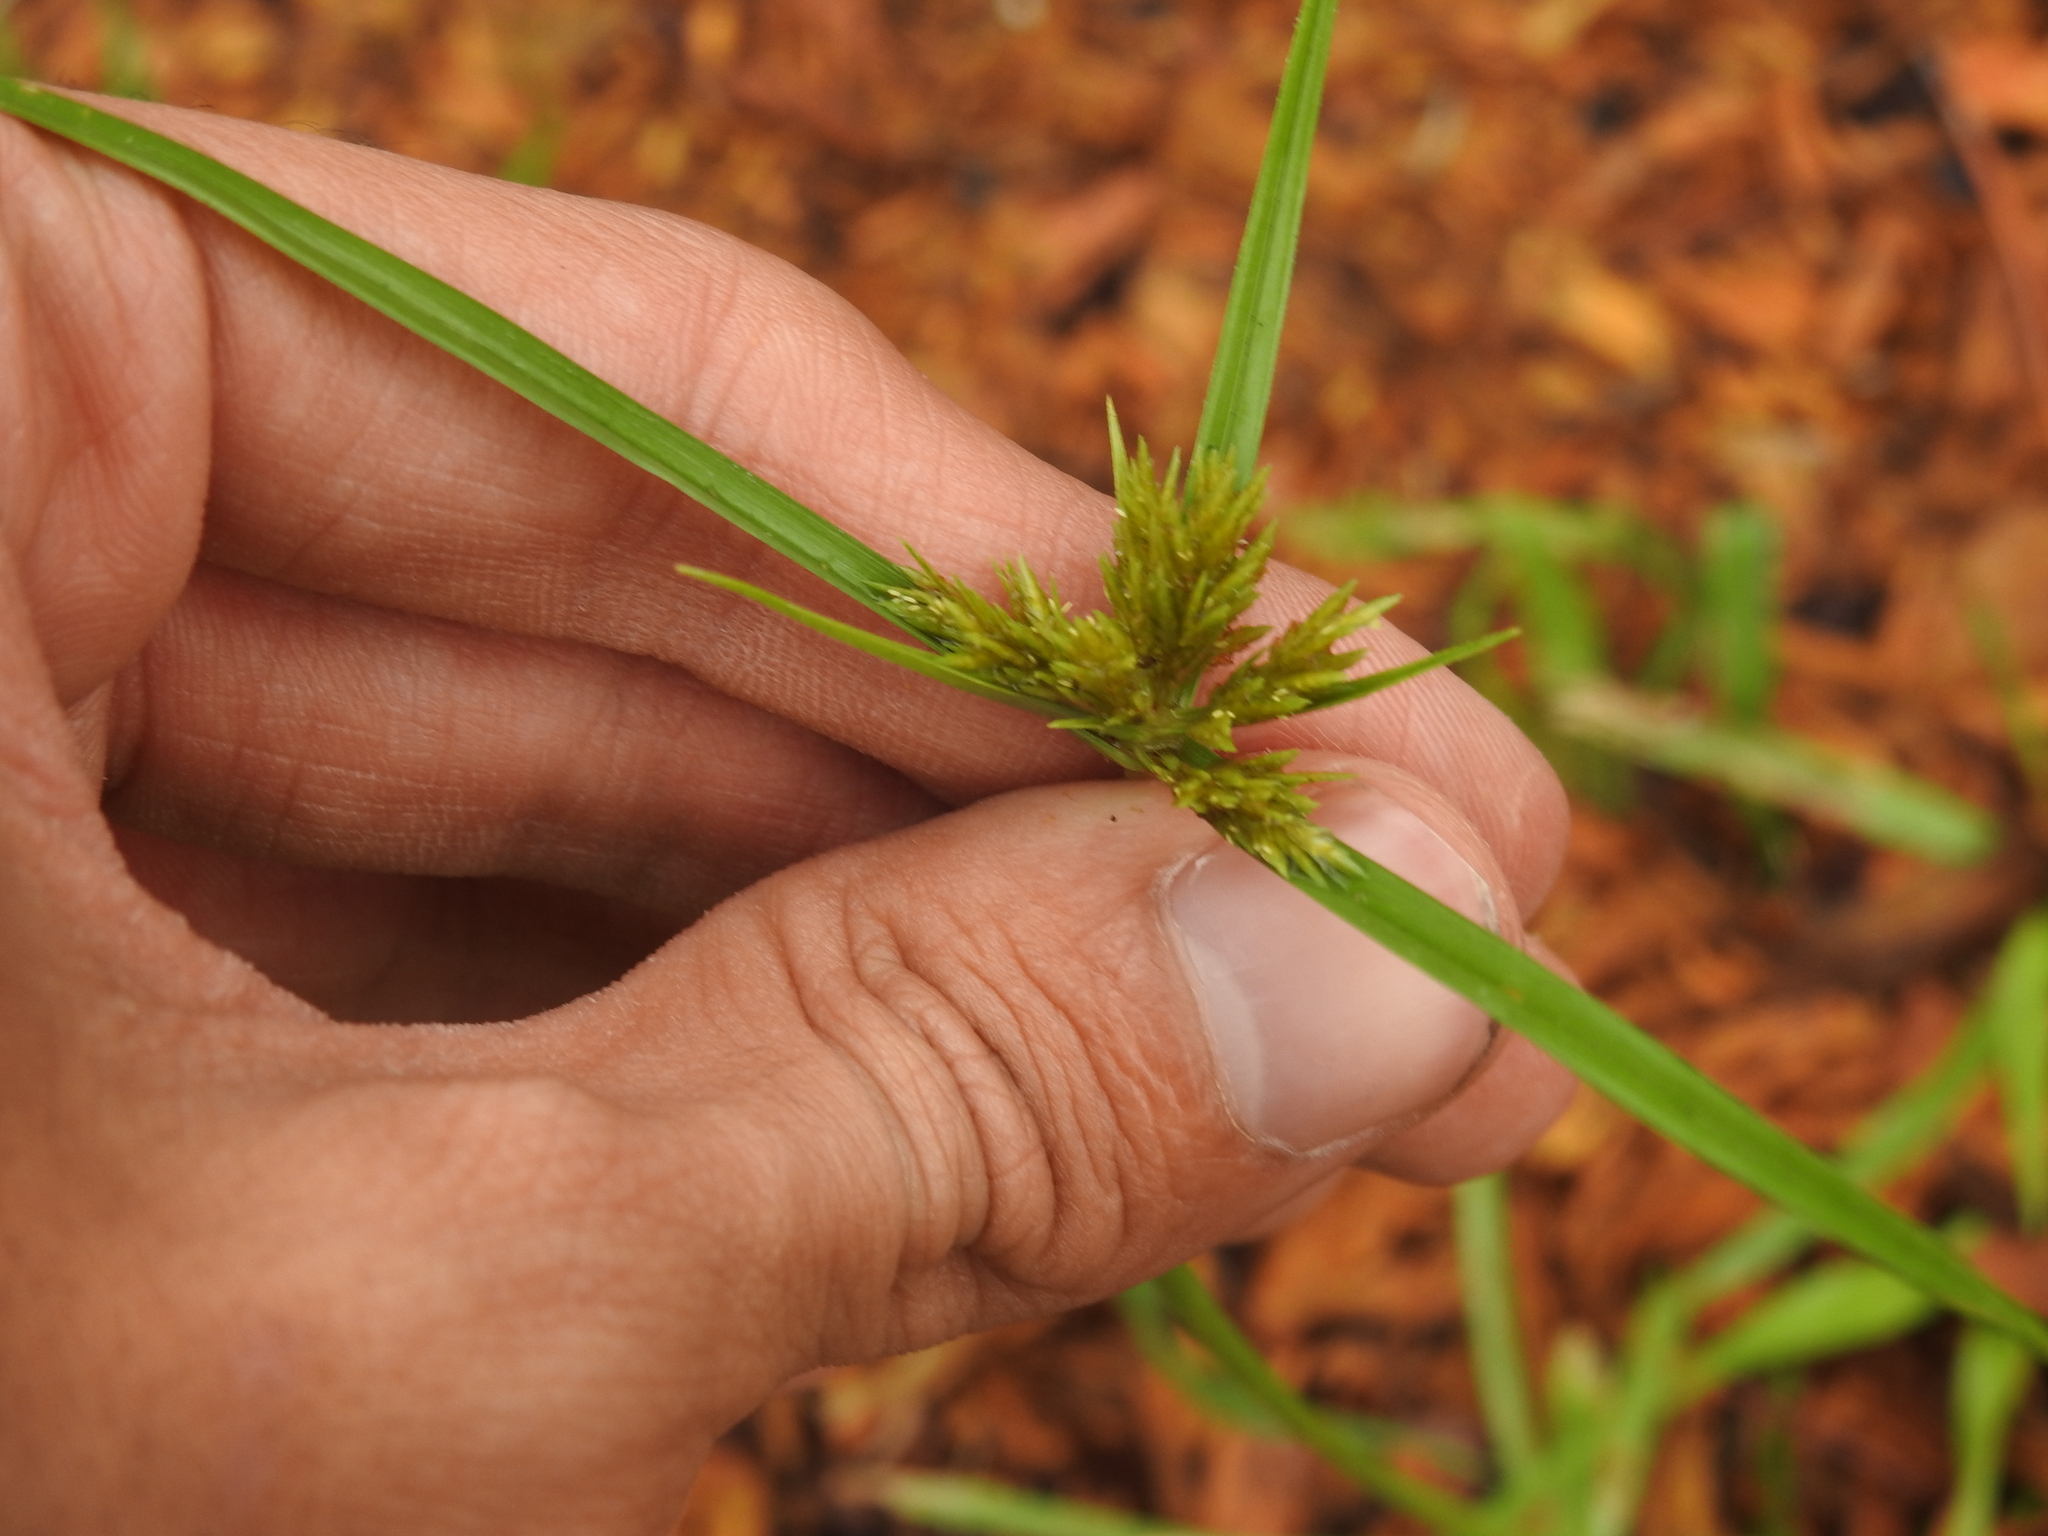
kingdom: Plantae
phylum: Tracheophyta
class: Liliopsida
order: Poales
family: Cyperaceae
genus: Cyperus
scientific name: Cyperus polystachyos
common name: Bunchy flat sedge
